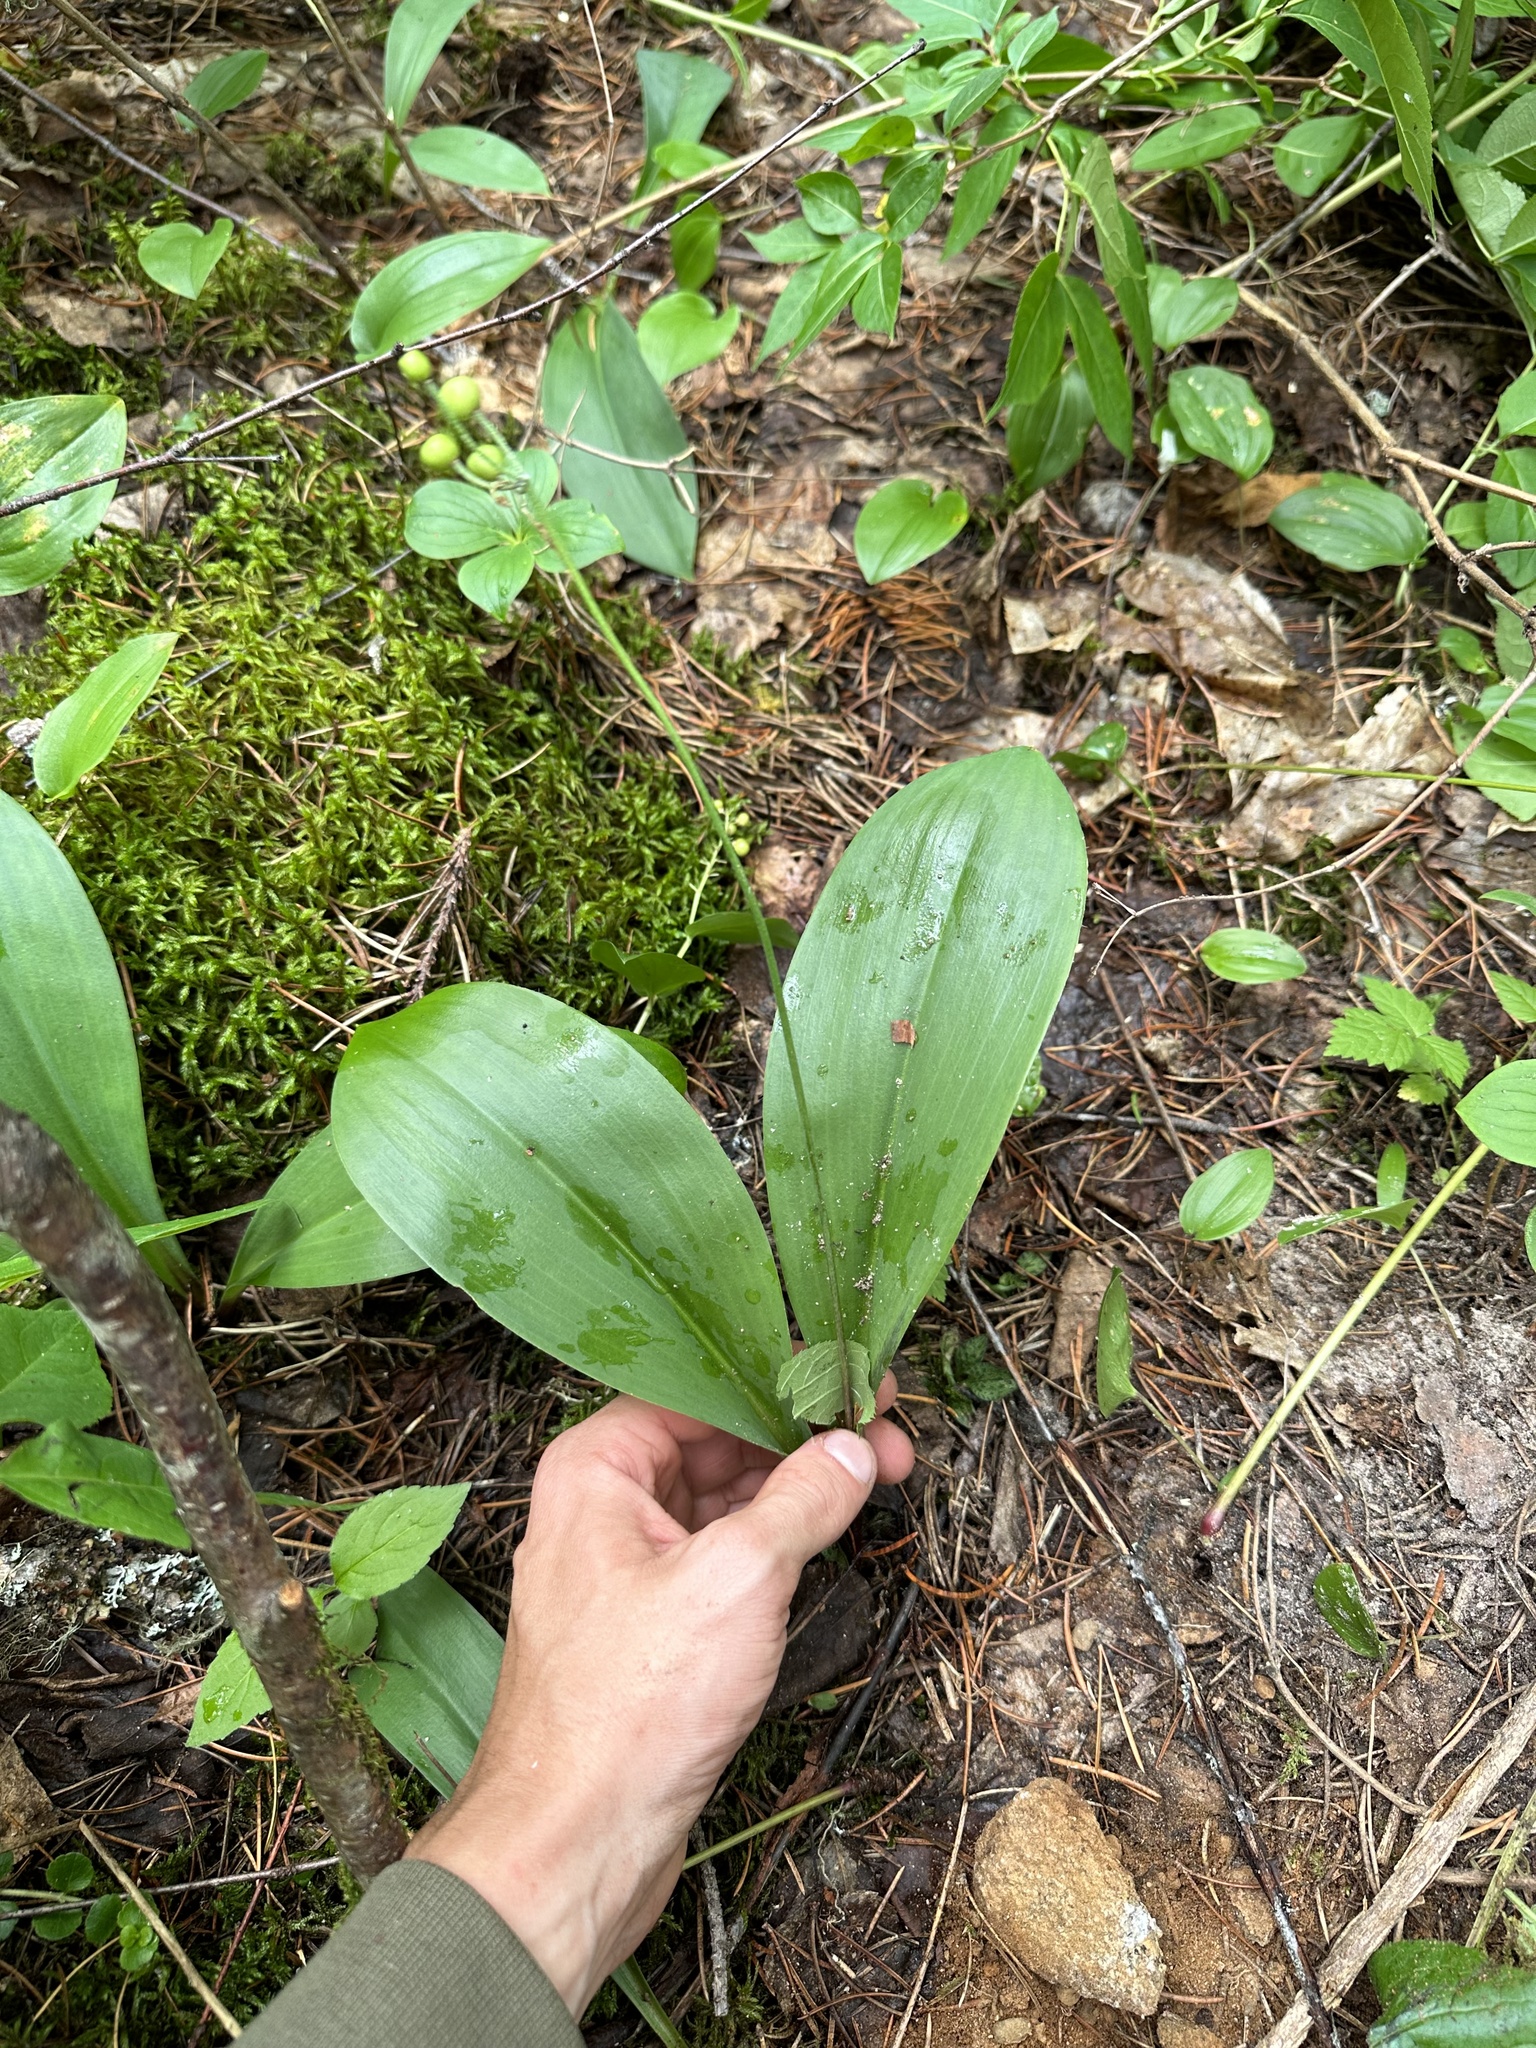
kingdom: Plantae
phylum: Tracheophyta
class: Liliopsida
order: Liliales
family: Liliaceae
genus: Clintonia
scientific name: Clintonia borealis
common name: Yellow clintonia
